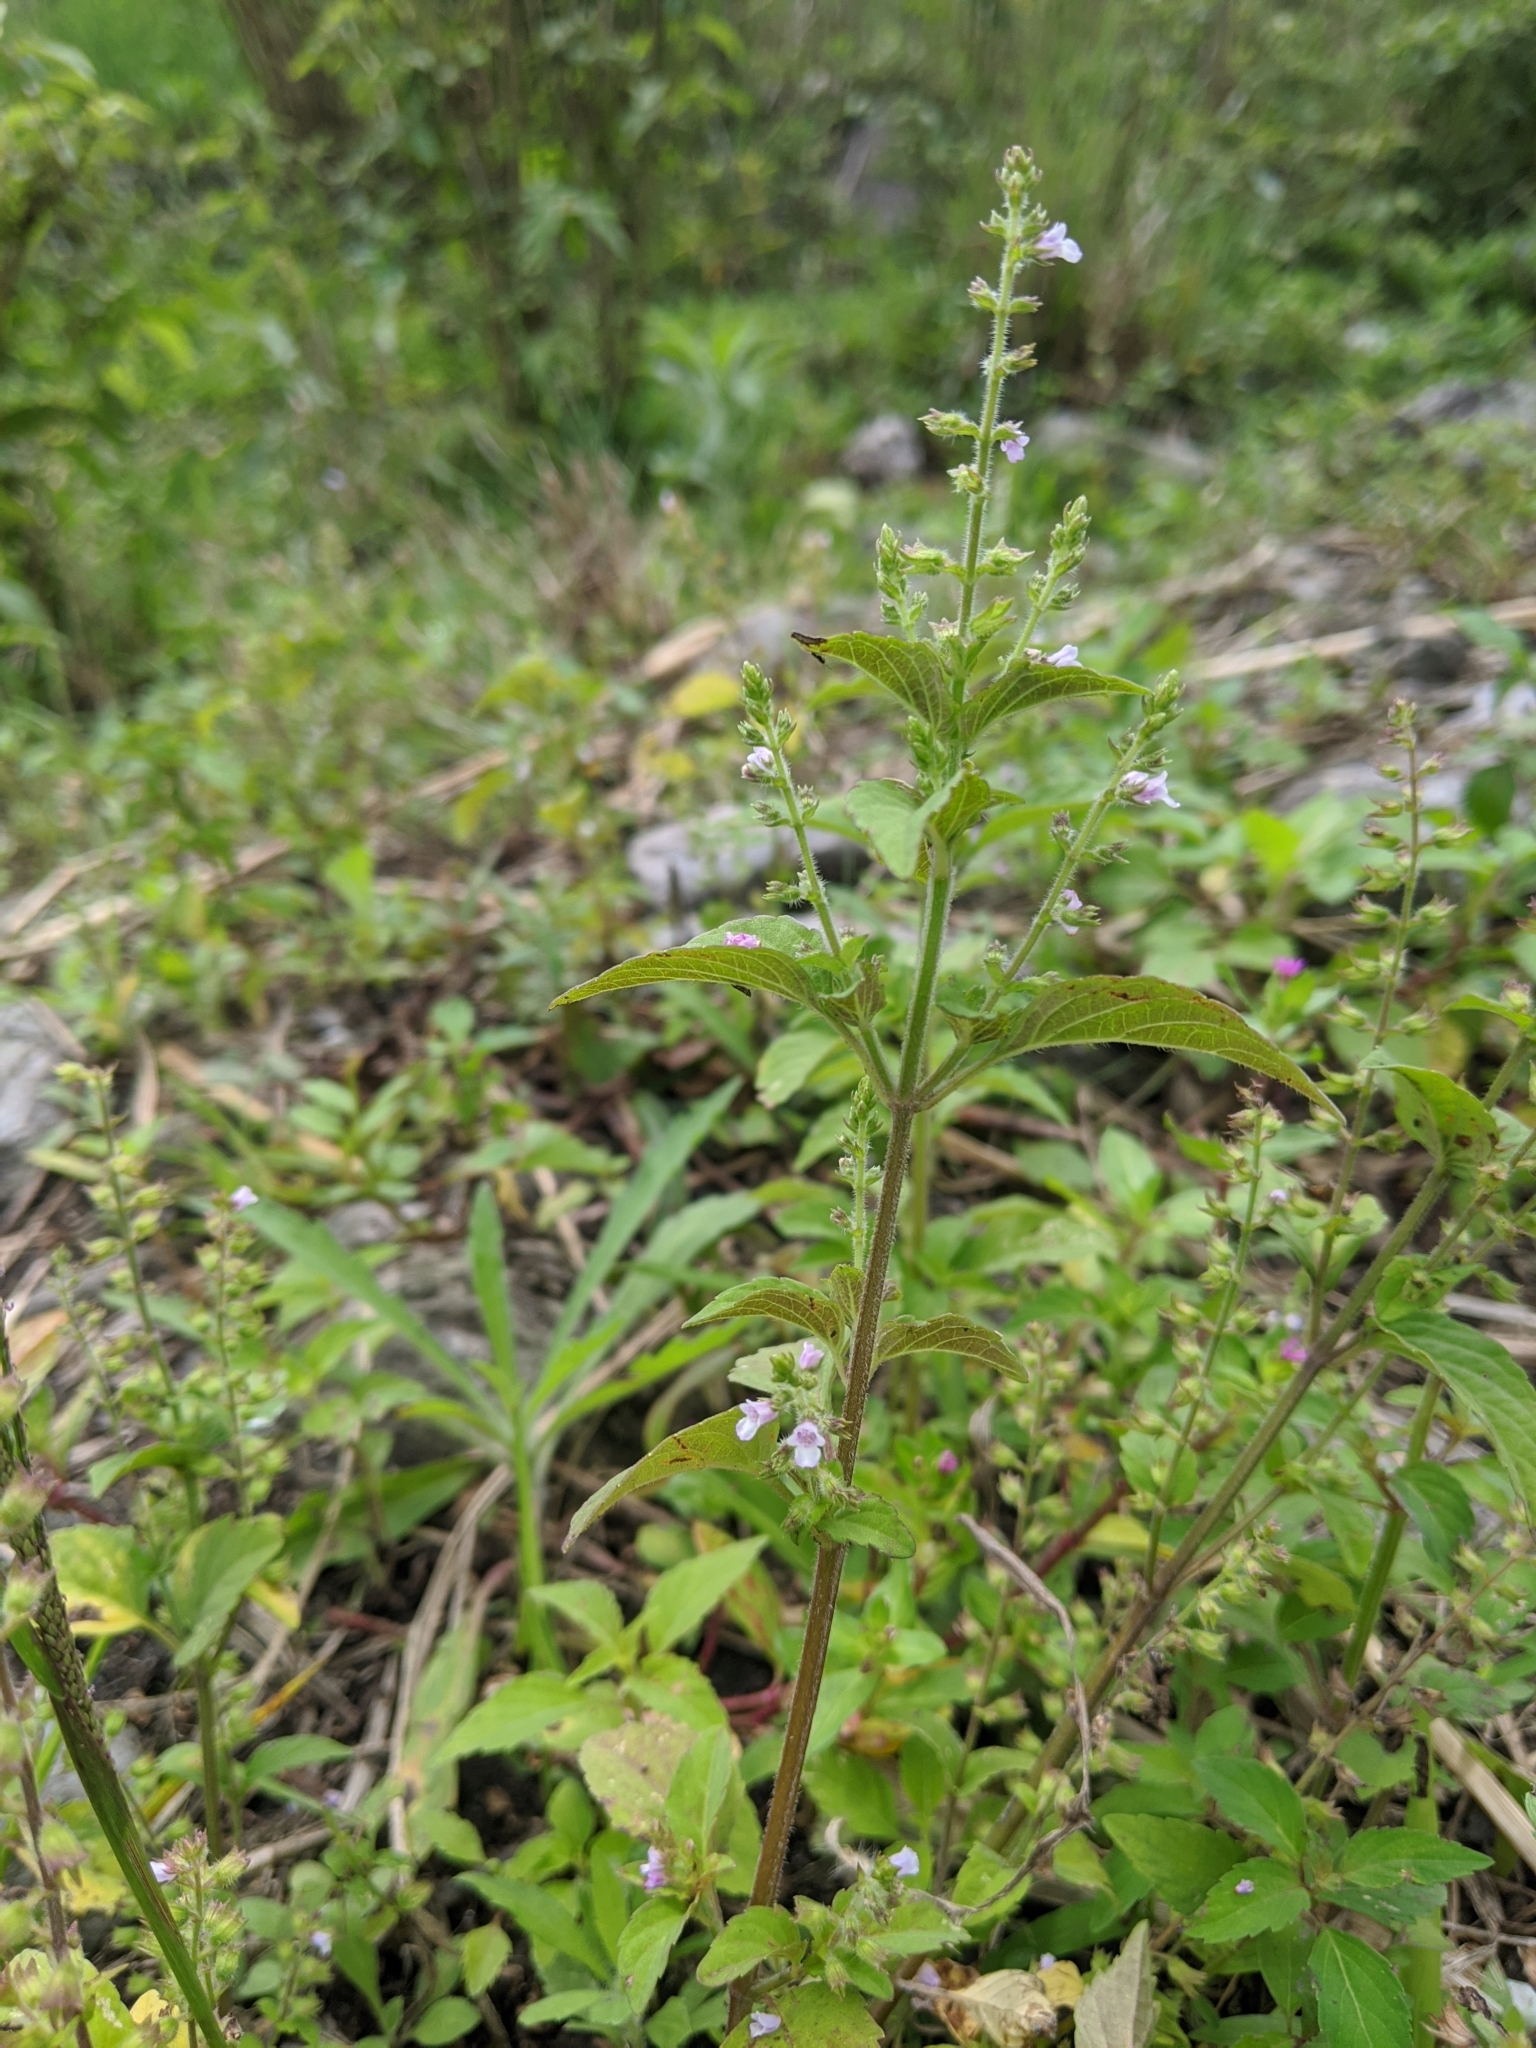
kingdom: Plantae
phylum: Tracheophyta
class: Magnoliopsida
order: Lamiales
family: Lamiaceae
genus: Mosla
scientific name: Mosla scabra
